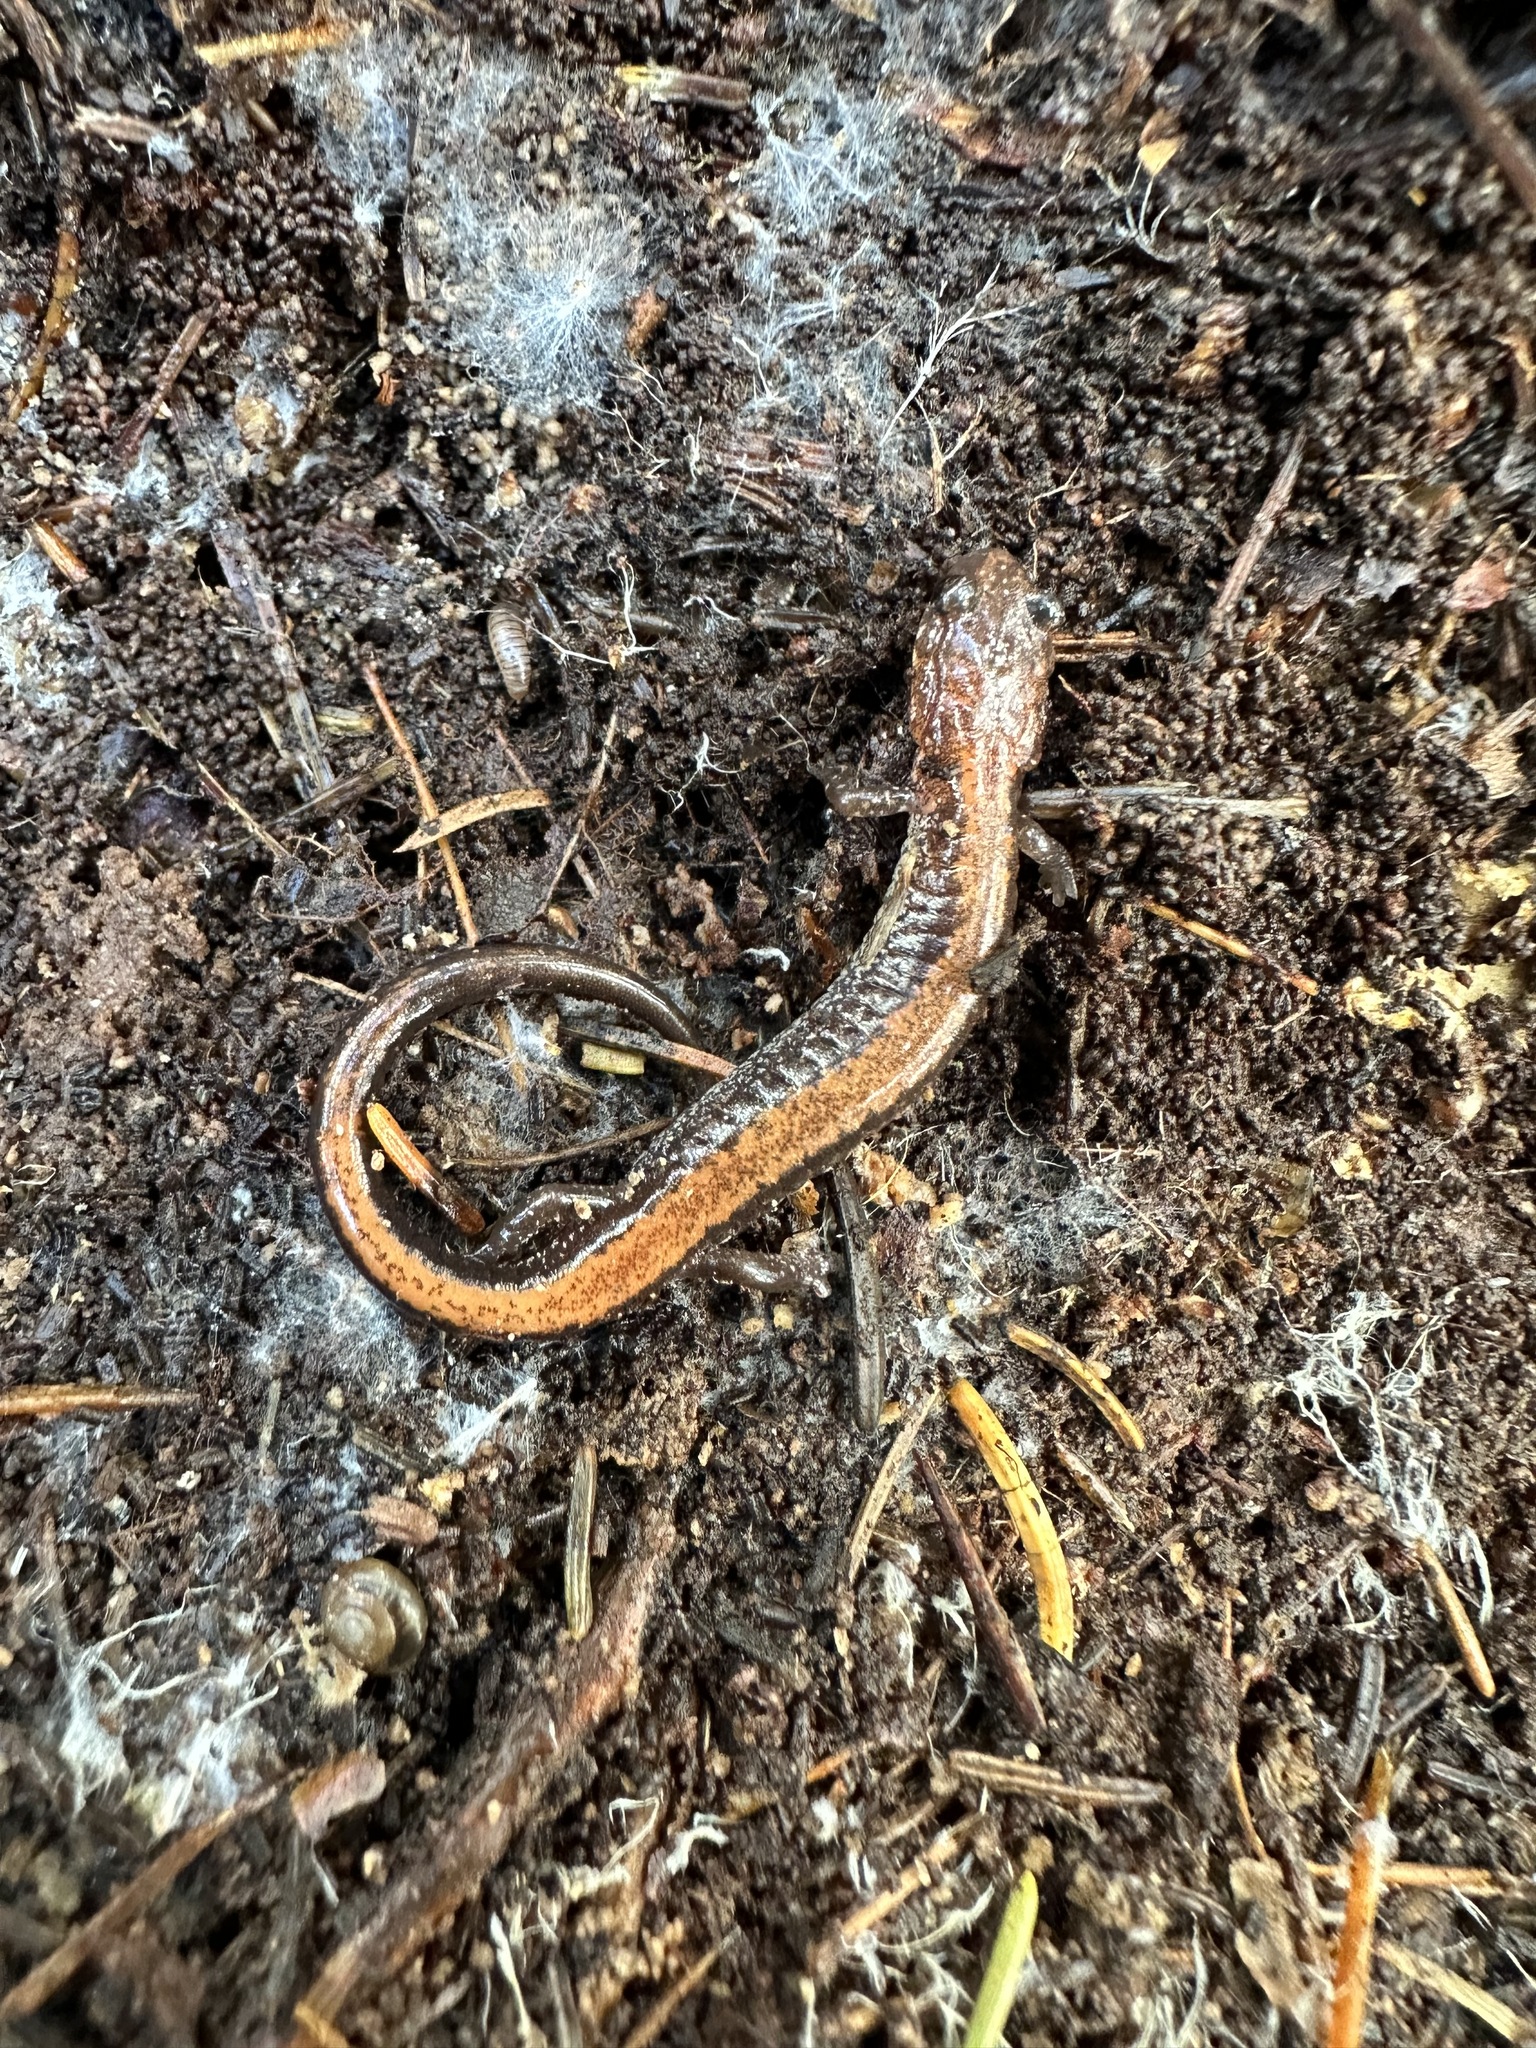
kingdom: Animalia
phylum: Chordata
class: Amphibia
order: Caudata
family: Plethodontidae
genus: Plethodon
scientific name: Plethodon cinereus
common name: Redback salamander
